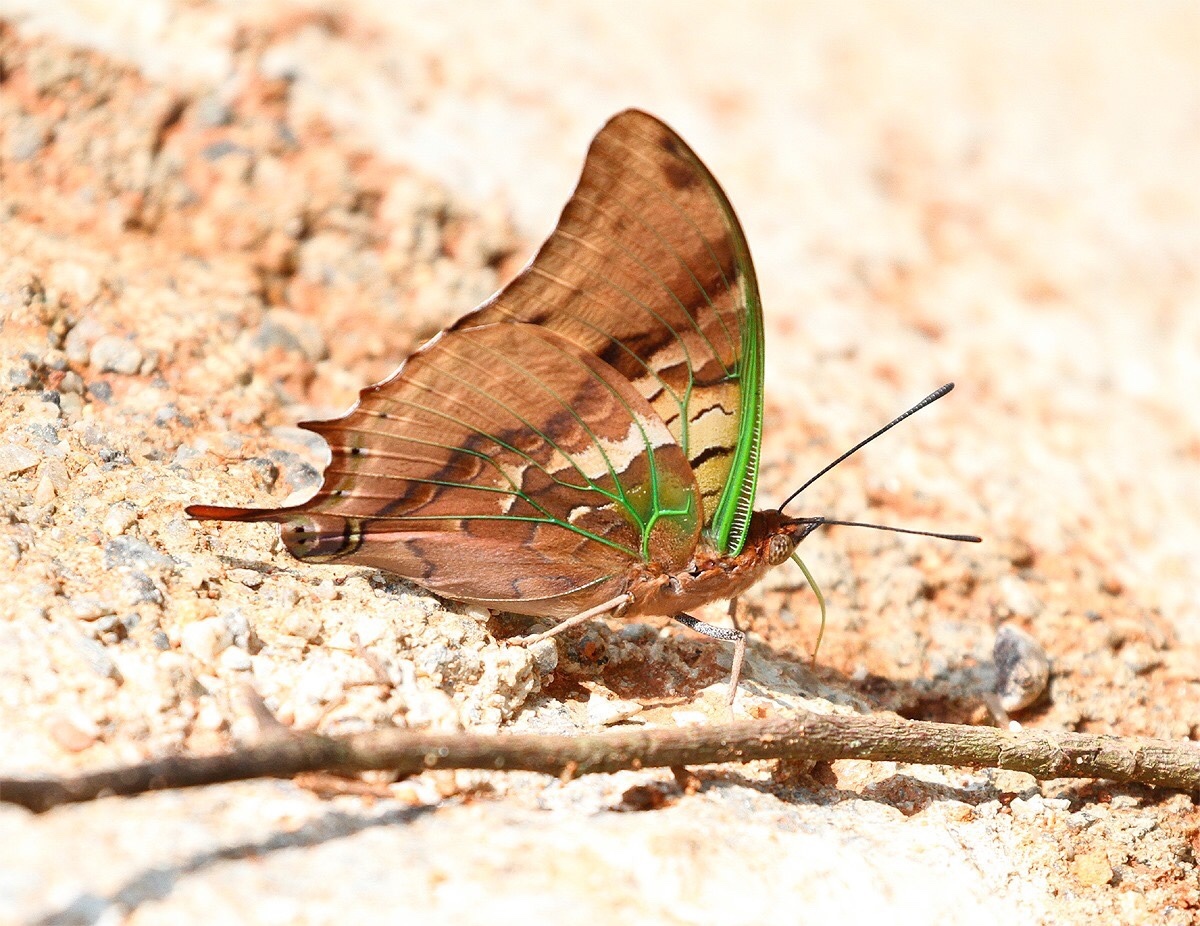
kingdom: Animalia
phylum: Arthropoda
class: Insecta
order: Lepidoptera
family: Nymphalidae
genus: Charaxes
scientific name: Charaxes candiope
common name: Green-veined charaxes
